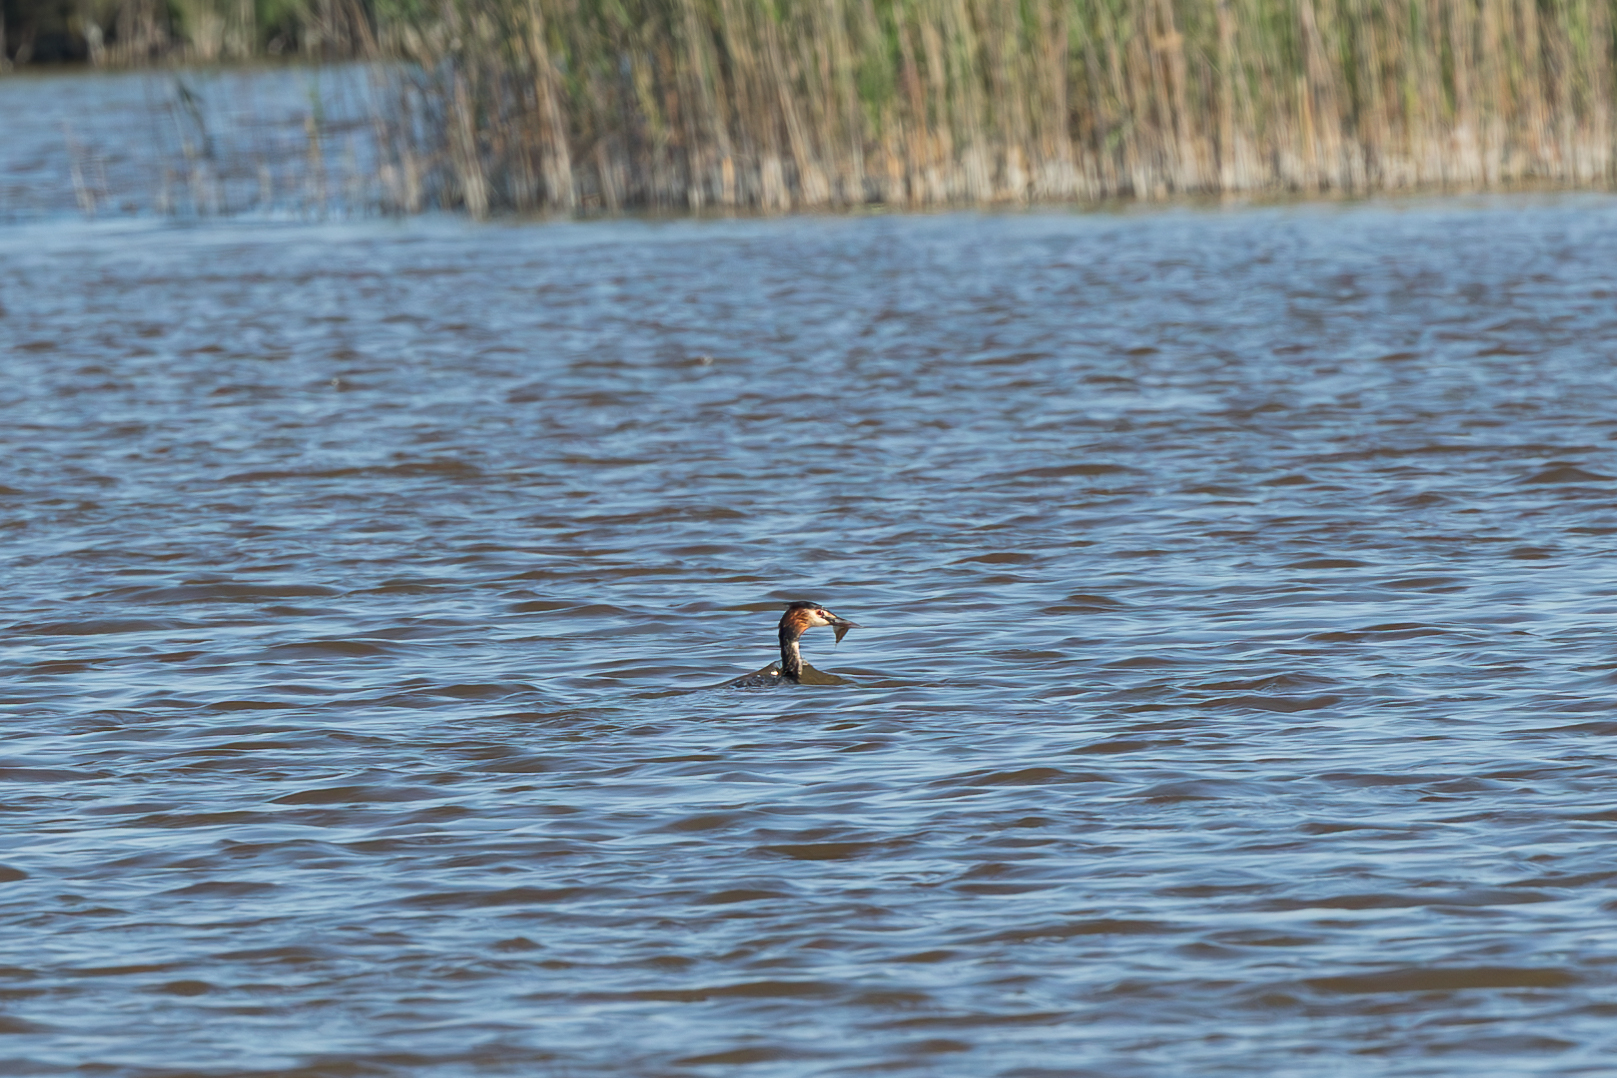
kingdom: Animalia
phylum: Chordata
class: Aves
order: Podicipediformes
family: Podicipedidae
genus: Podiceps
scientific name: Podiceps cristatus
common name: Great crested grebe
